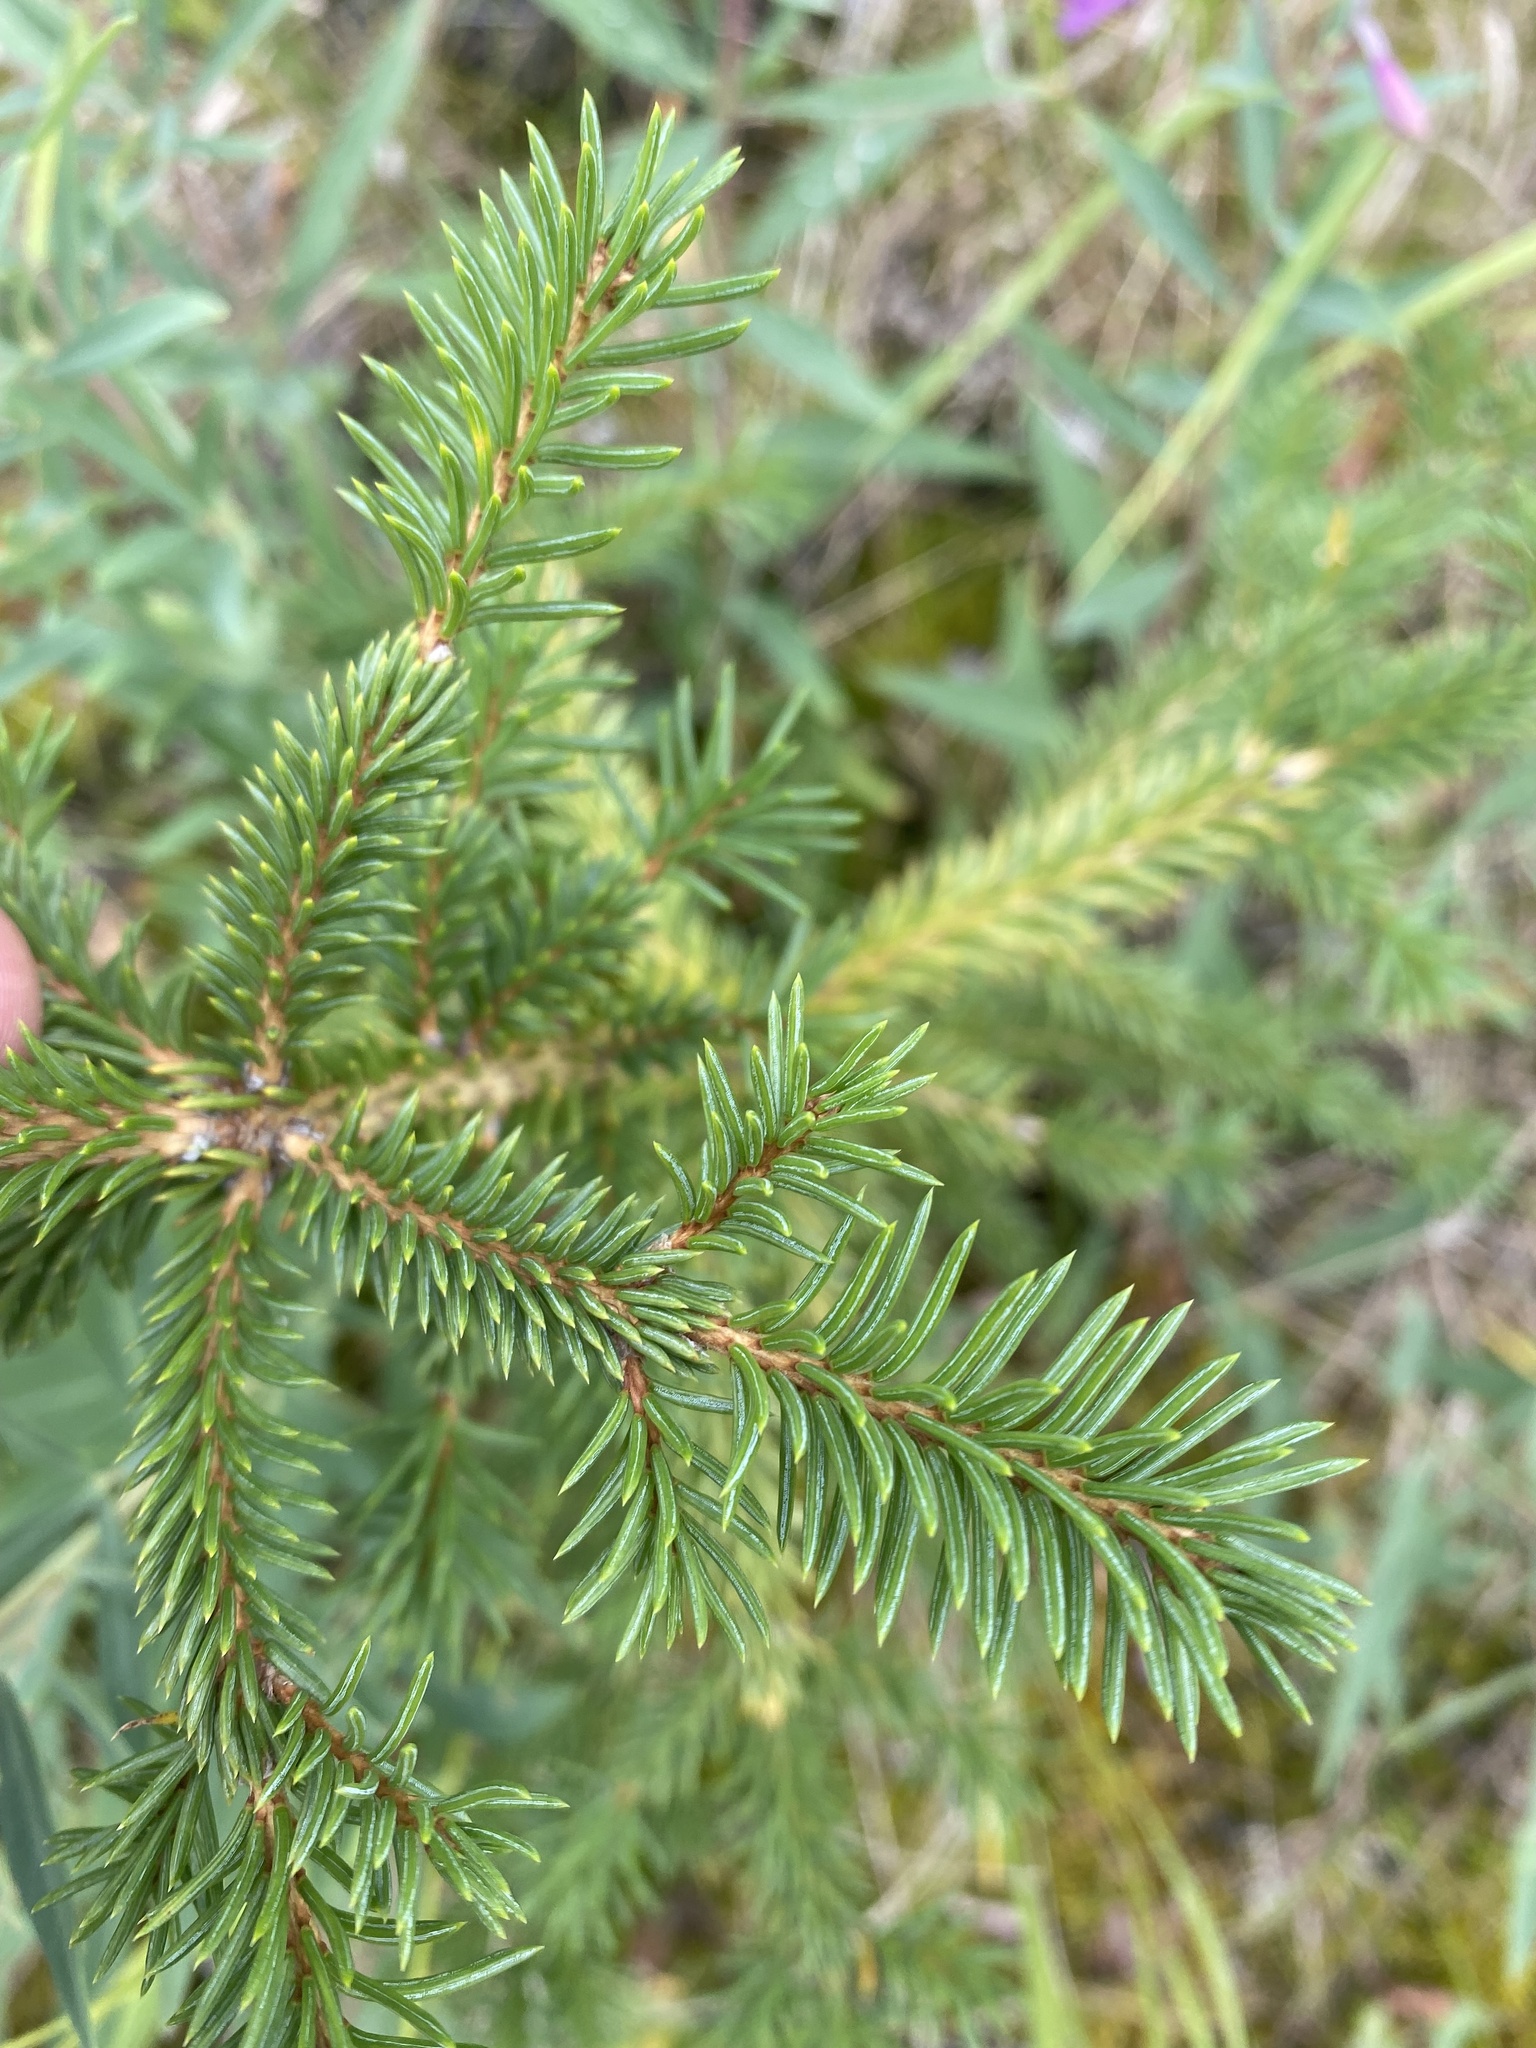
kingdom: Plantae
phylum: Tracheophyta
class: Pinopsida
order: Pinales
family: Pinaceae
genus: Picea
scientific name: Picea obovata
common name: Siberian spruce
